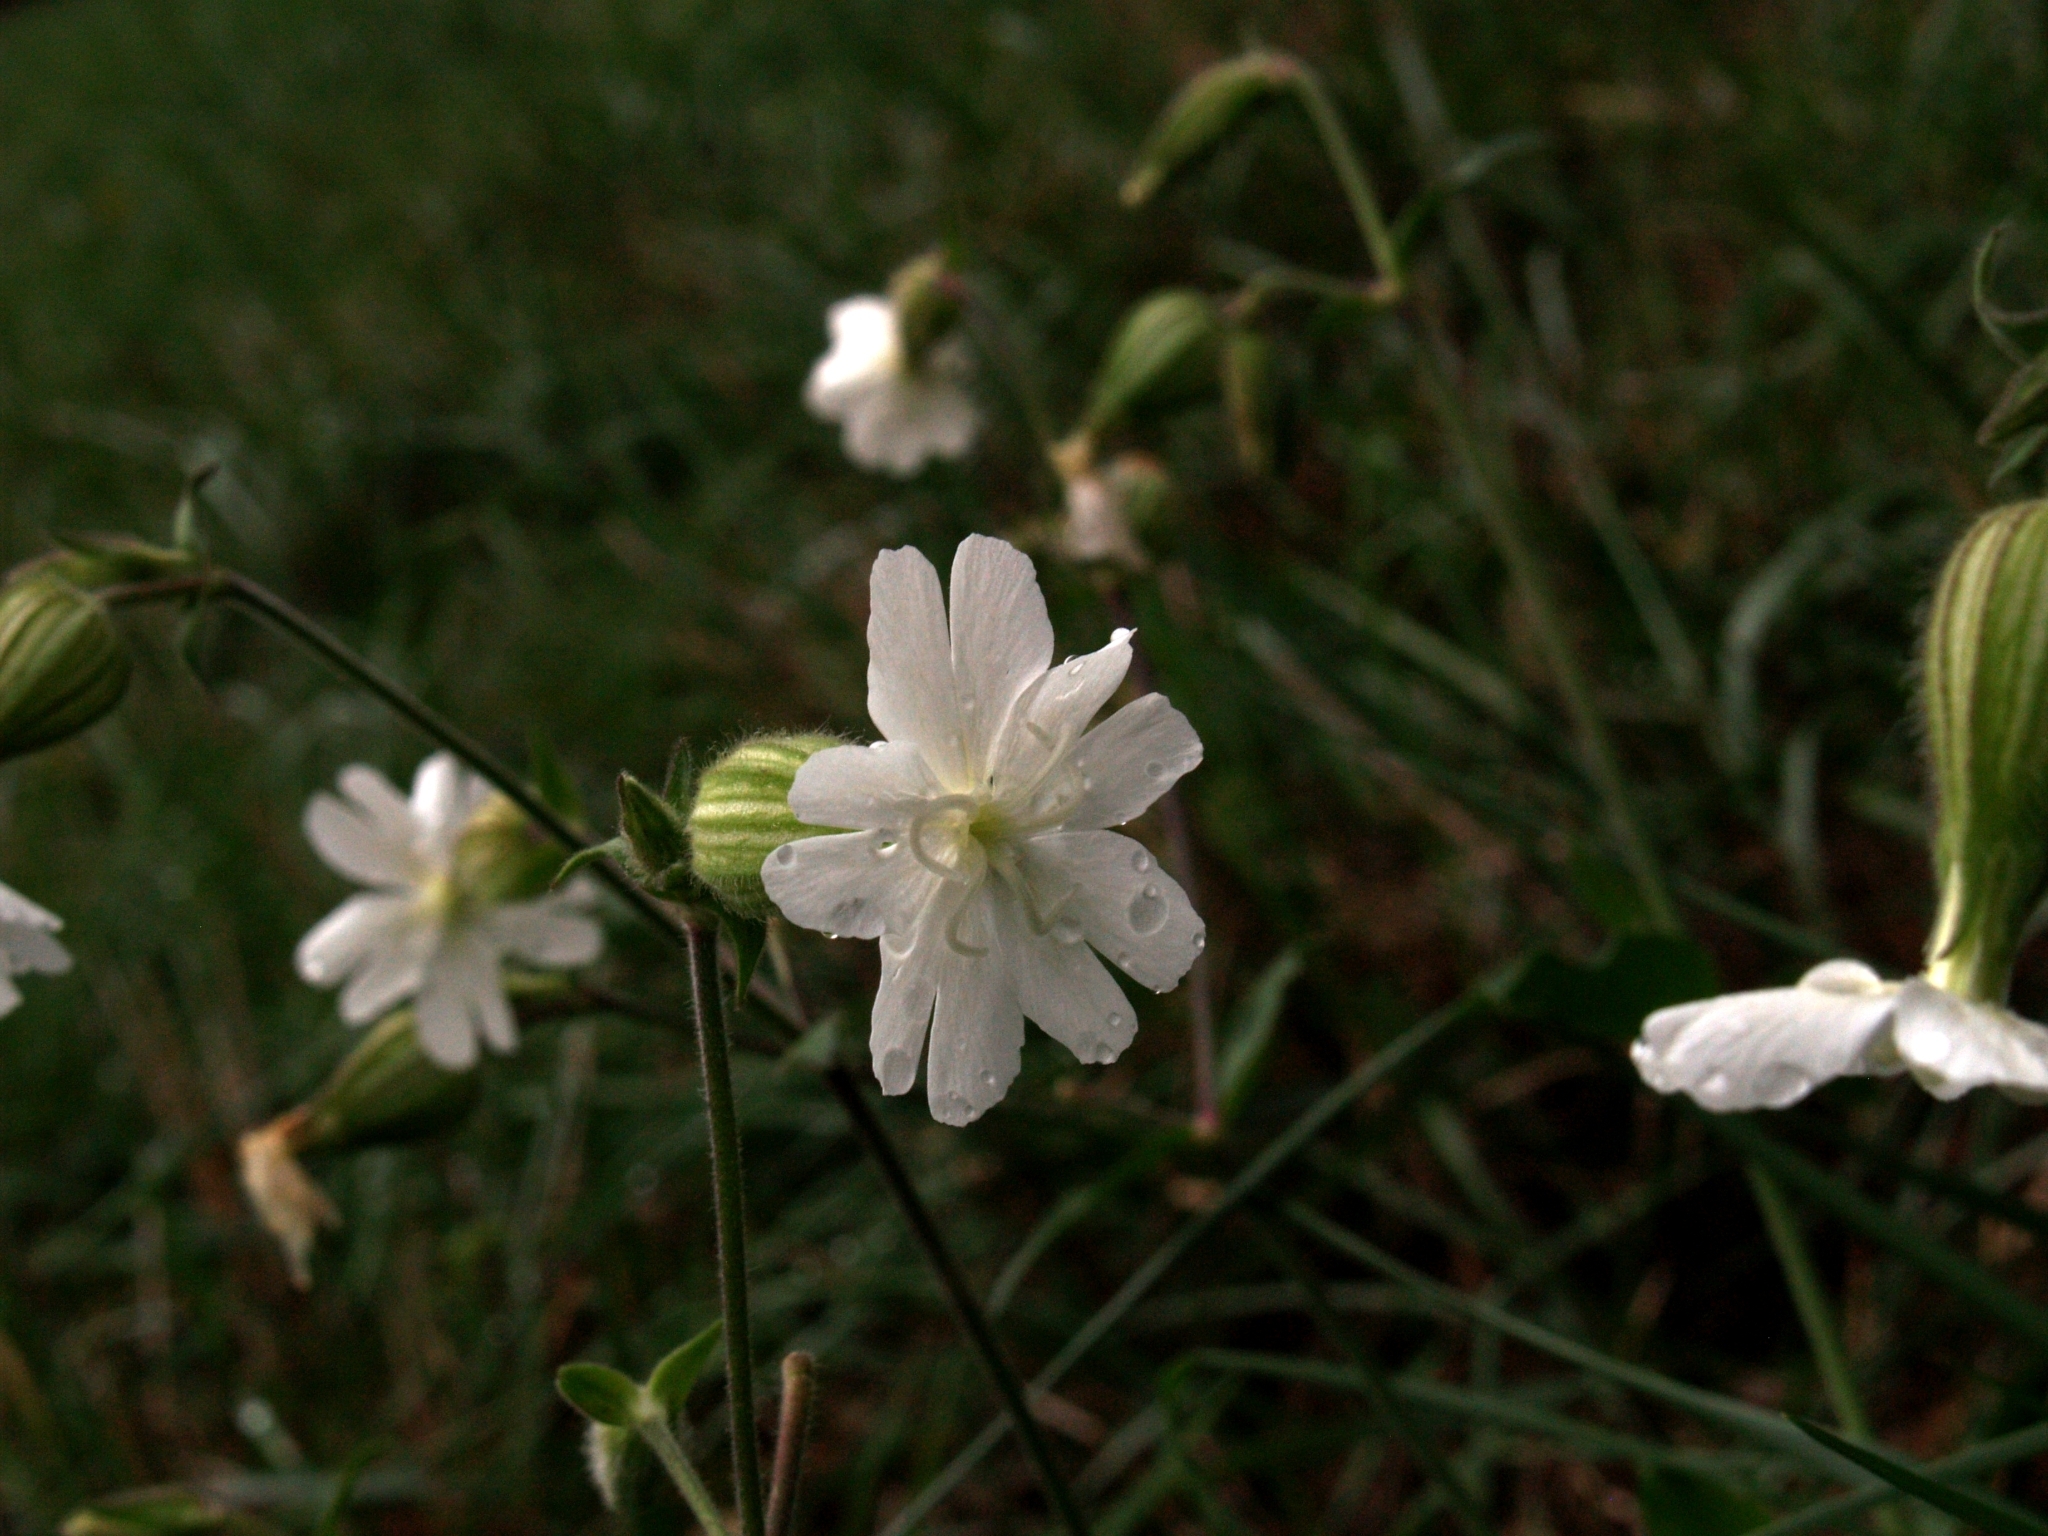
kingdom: Plantae
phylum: Tracheophyta
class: Magnoliopsida
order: Caryophyllales
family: Caryophyllaceae
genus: Silene
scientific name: Silene latifolia
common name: White campion
